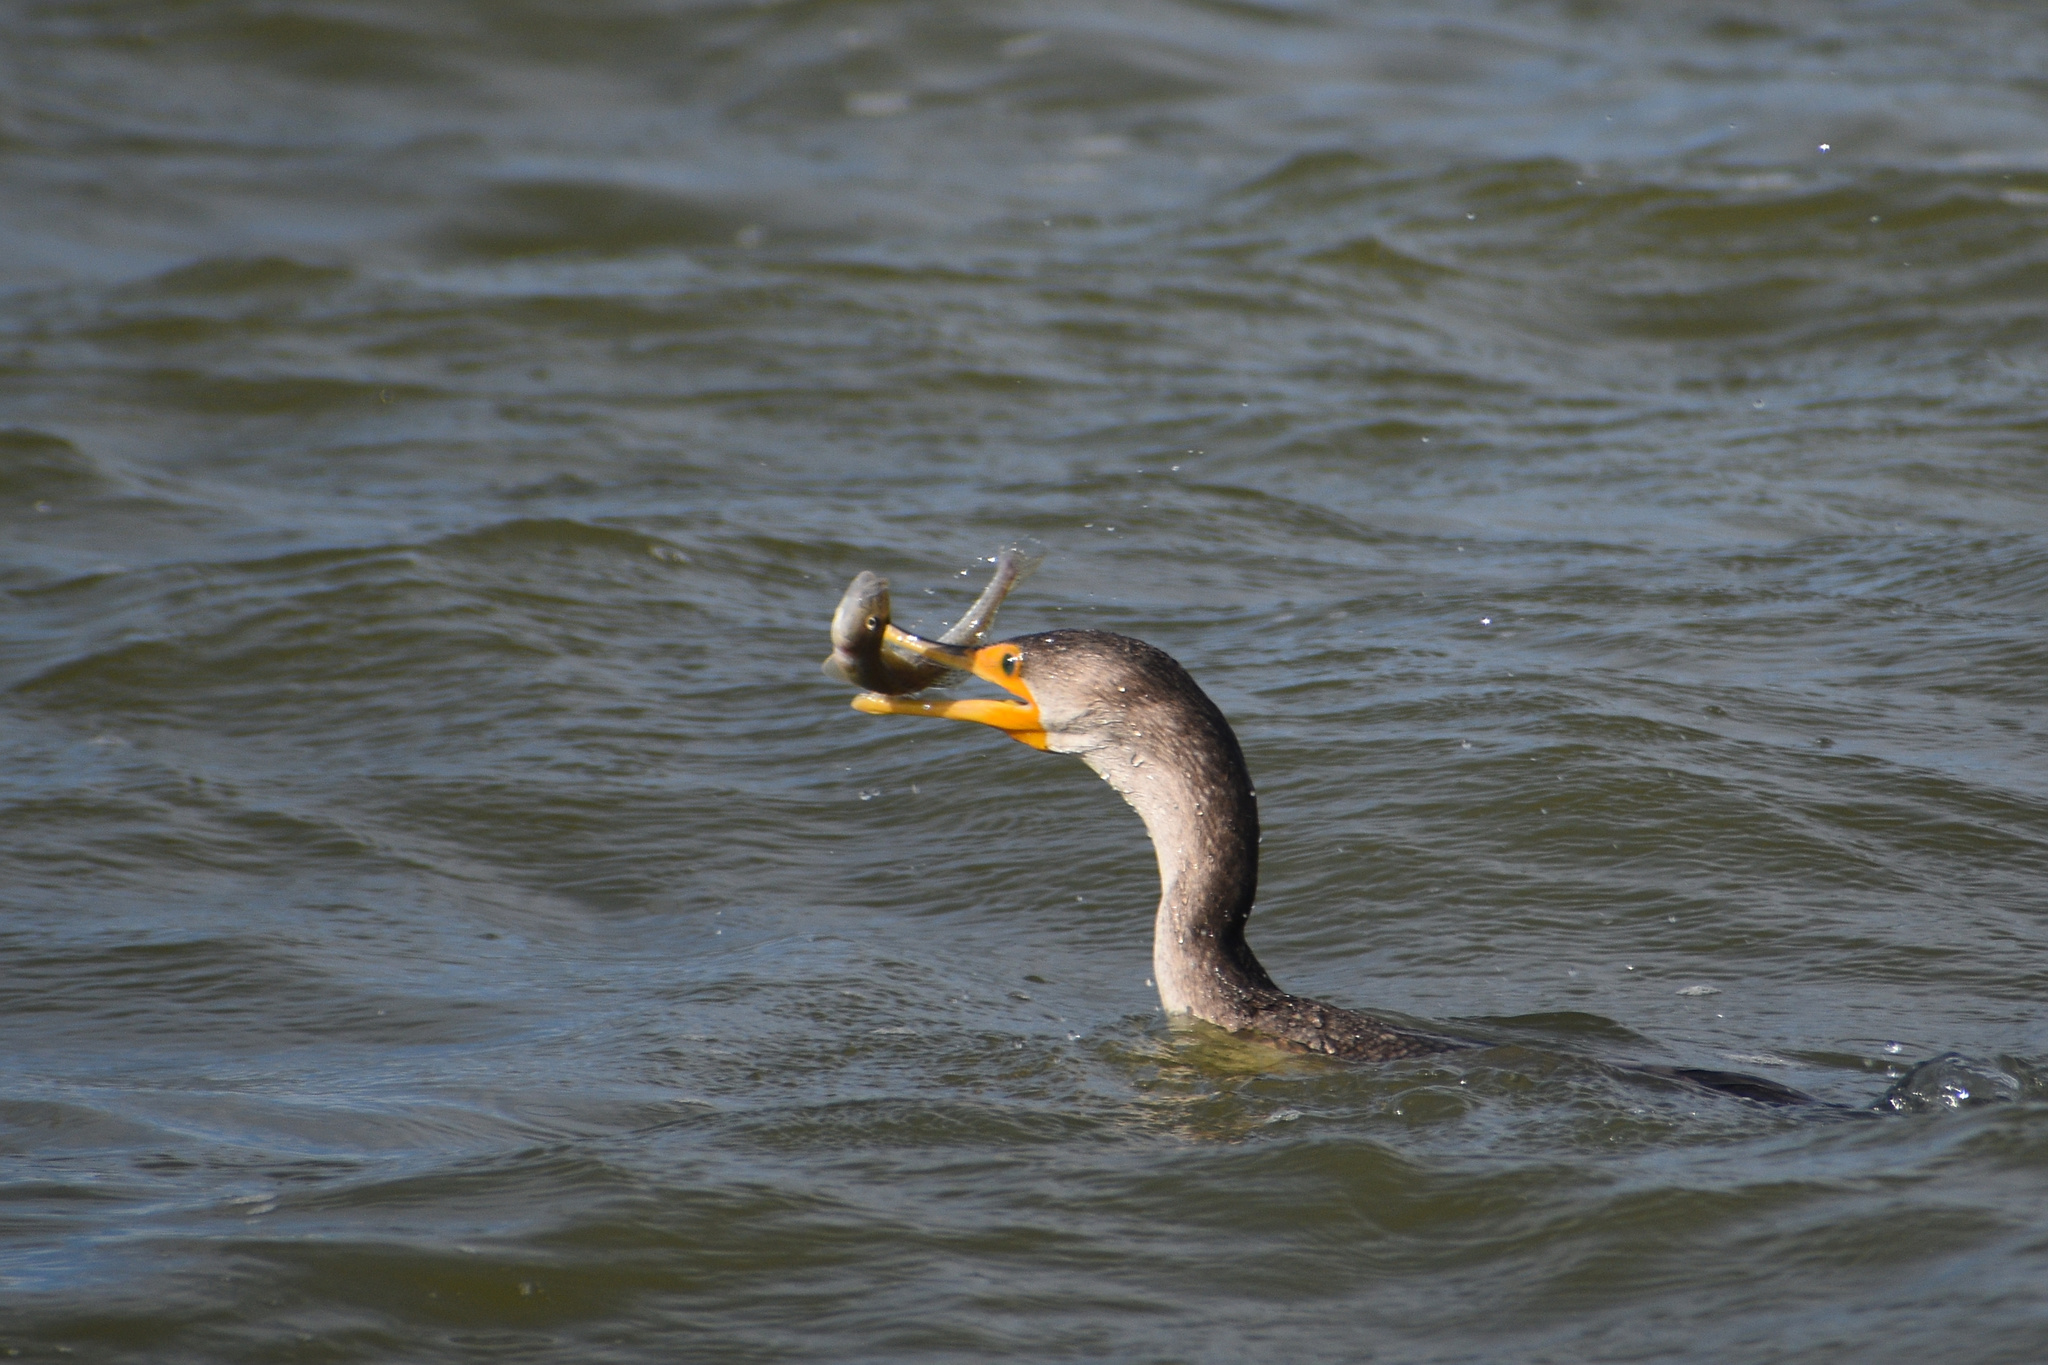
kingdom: Animalia
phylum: Chordata
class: Aves
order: Suliformes
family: Phalacrocoracidae
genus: Phalacrocorax
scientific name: Phalacrocorax auritus
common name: Double-crested cormorant
